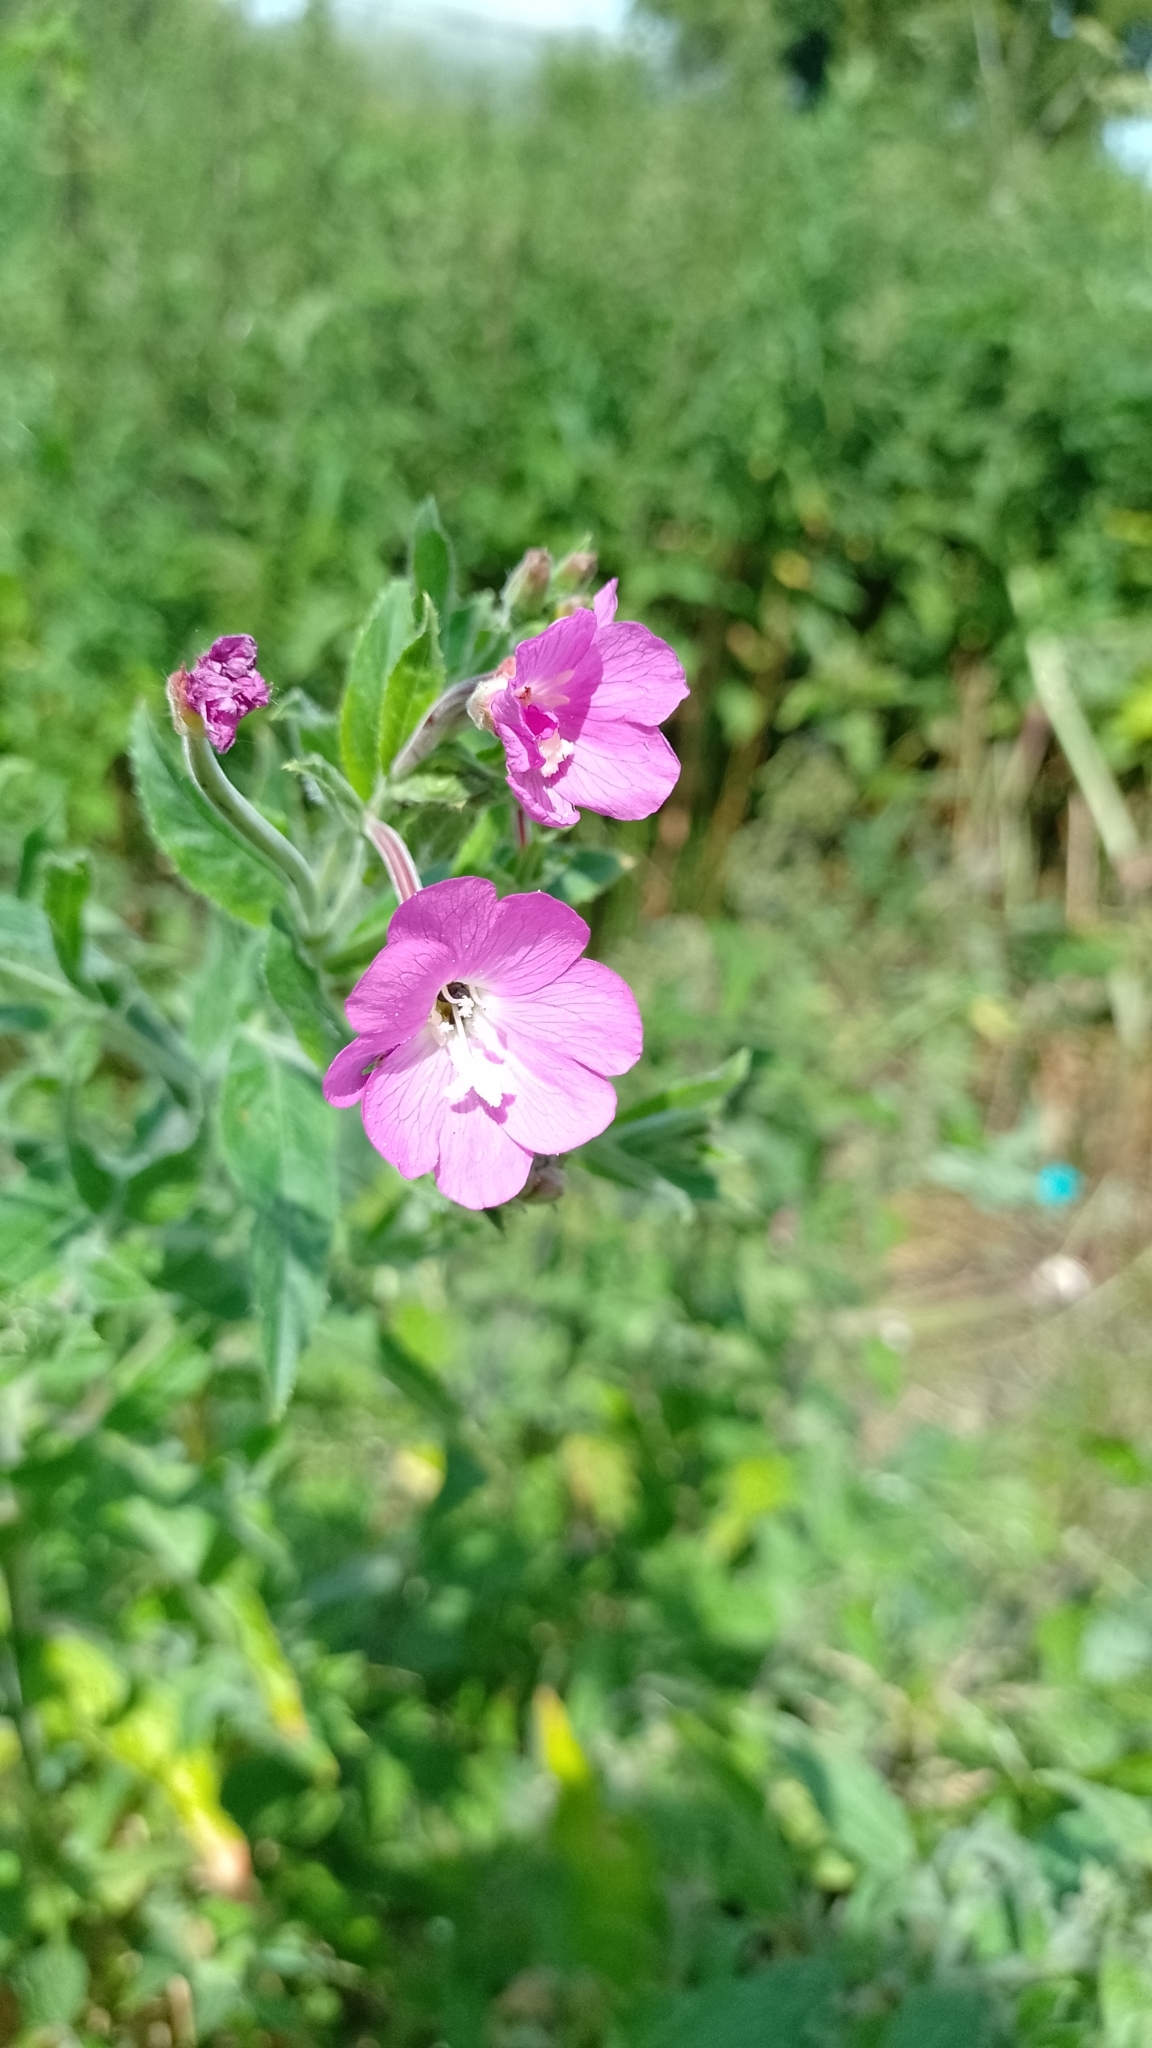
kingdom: Plantae
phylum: Tracheophyta
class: Magnoliopsida
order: Myrtales
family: Onagraceae
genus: Epilobium
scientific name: Epilobium hirsutum
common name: Great willowherb
